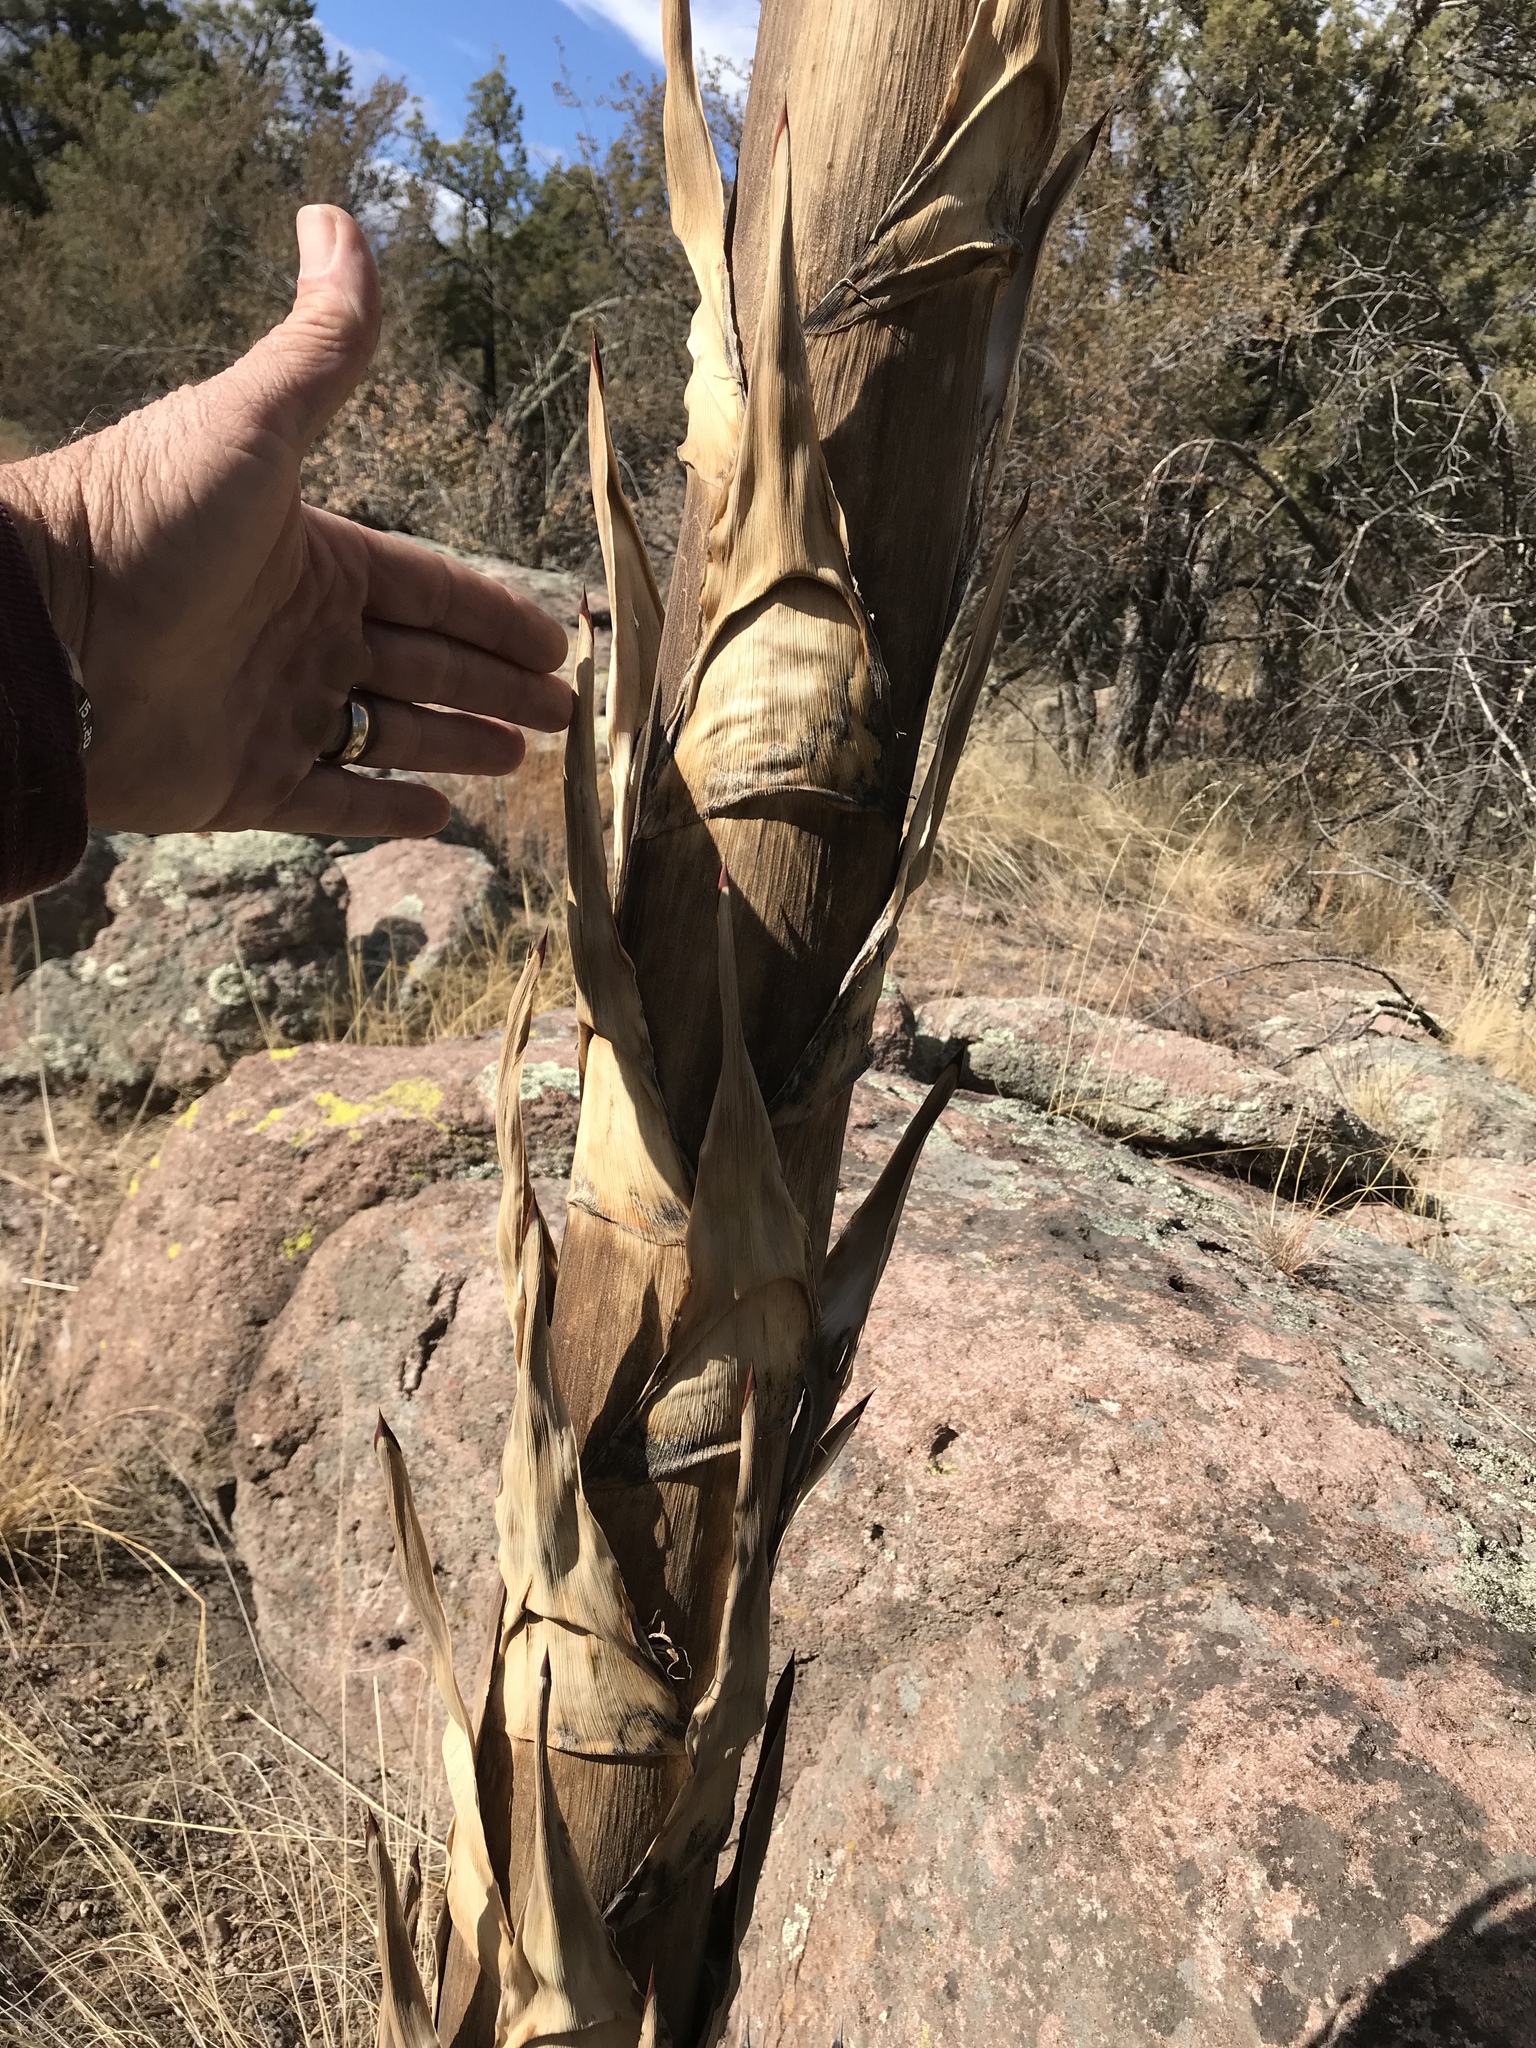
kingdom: Plantae
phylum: Tracheophyta
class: Liliopsida
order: Asparagales
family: Asparagaceae
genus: Agave
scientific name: Agave parryi
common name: Parry's agave
